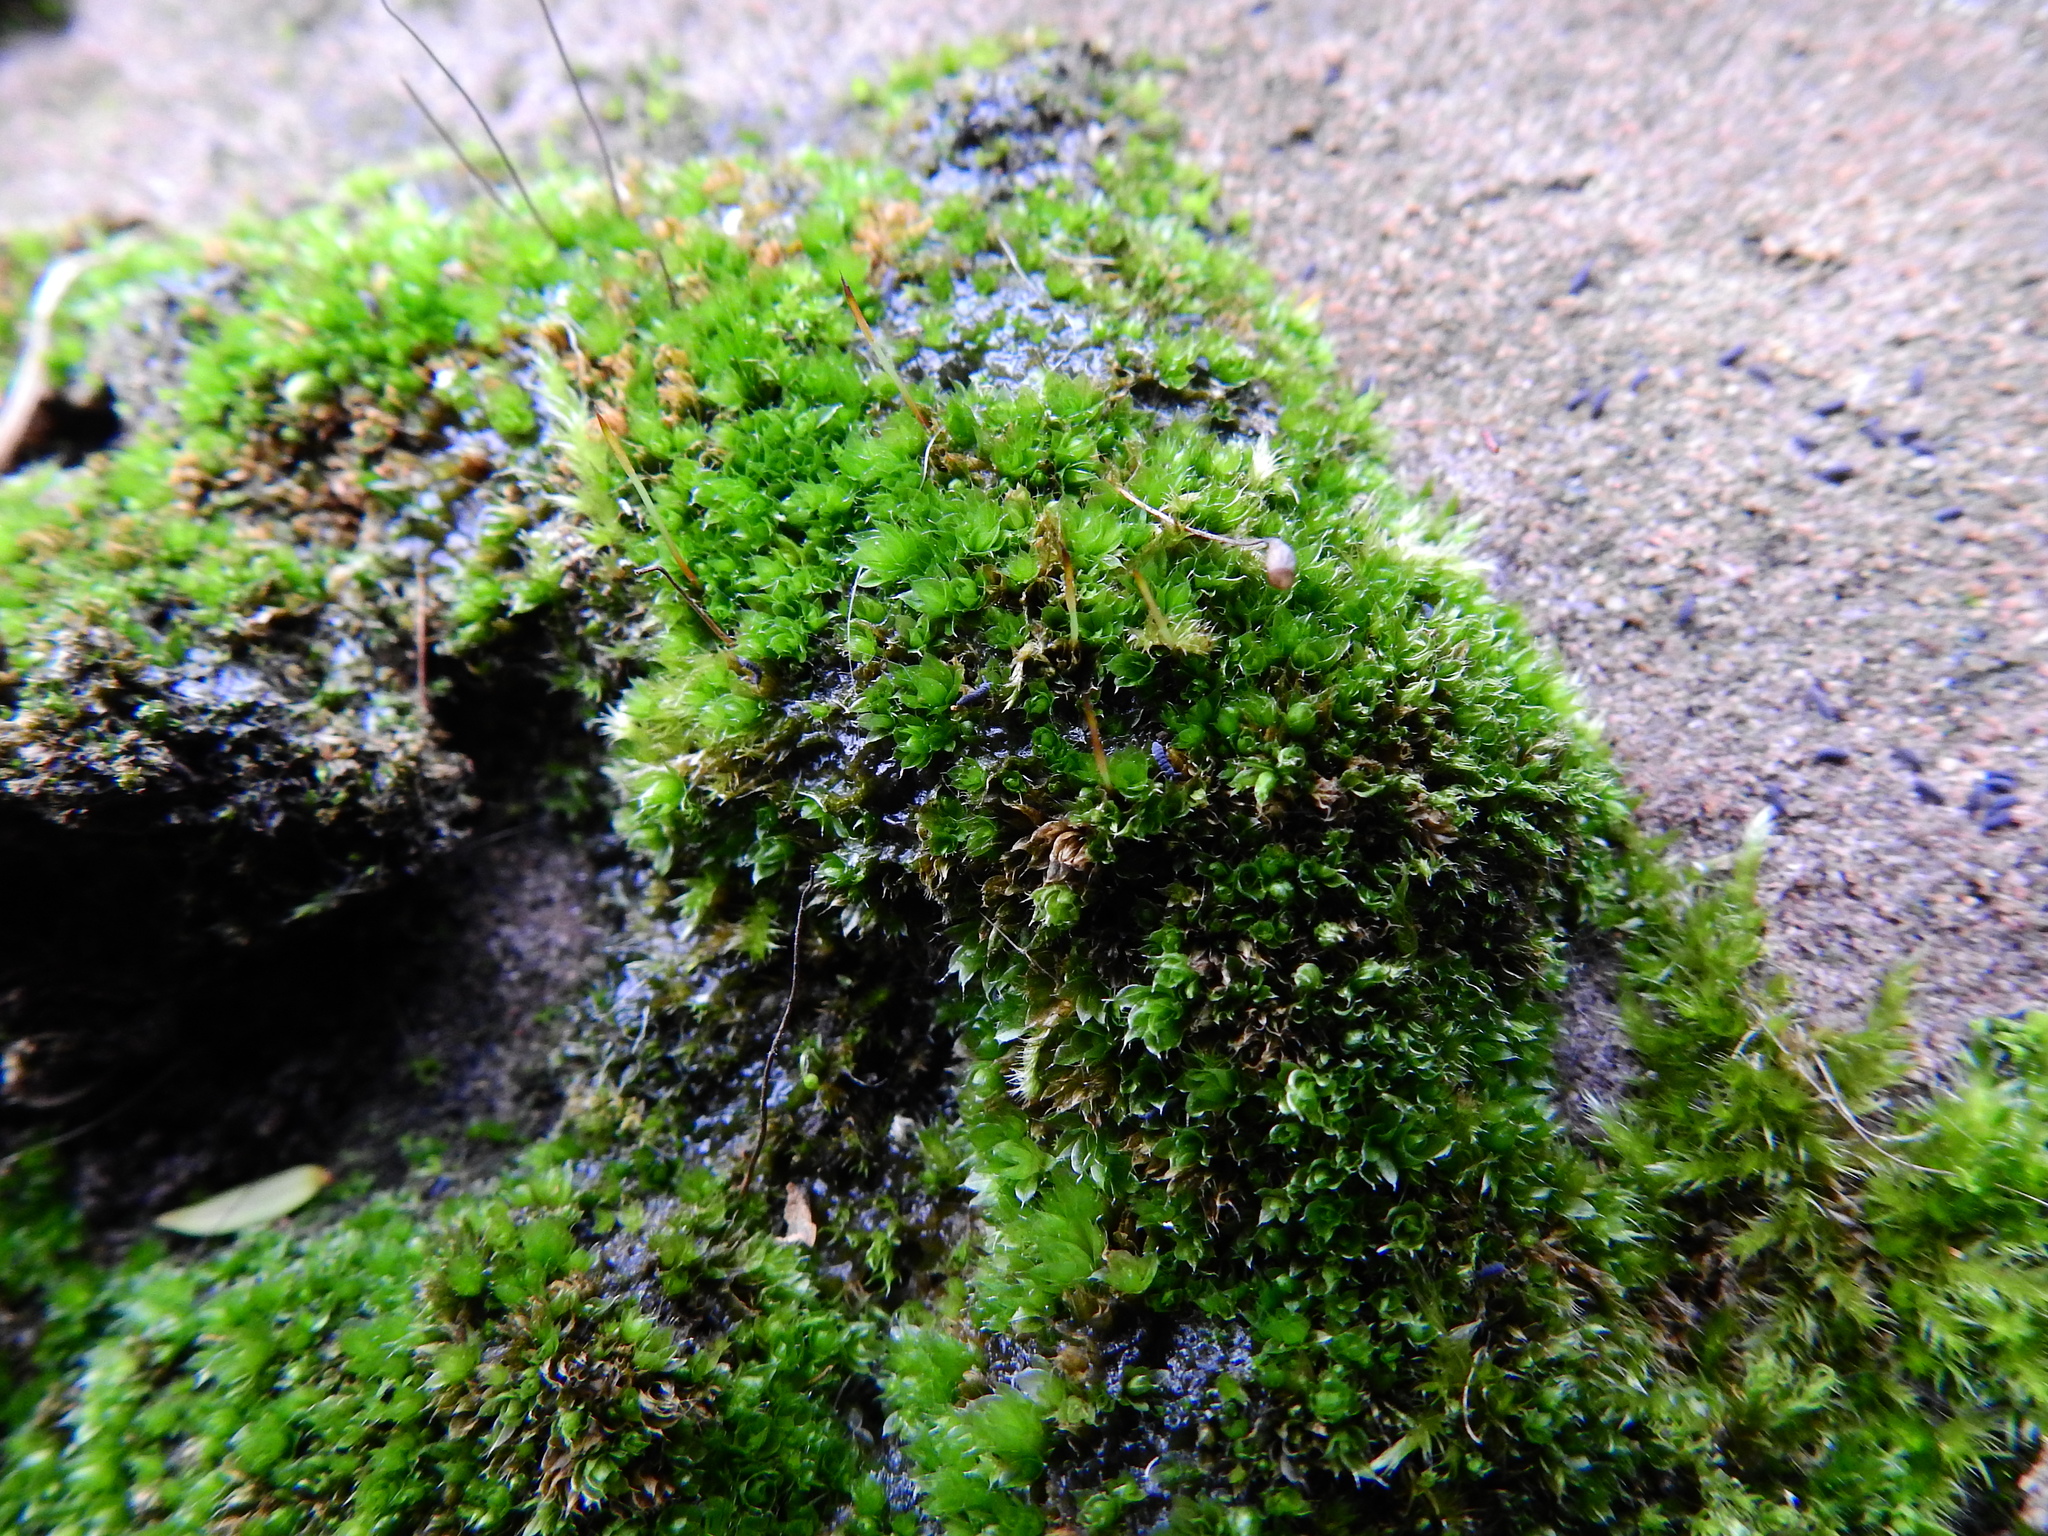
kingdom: Plantae
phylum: Bryophyta
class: Bryopsida
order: Bryales
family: Bryaceae
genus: Rosulabryum
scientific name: Rosulabryum capillare
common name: Capillary thread-moss
